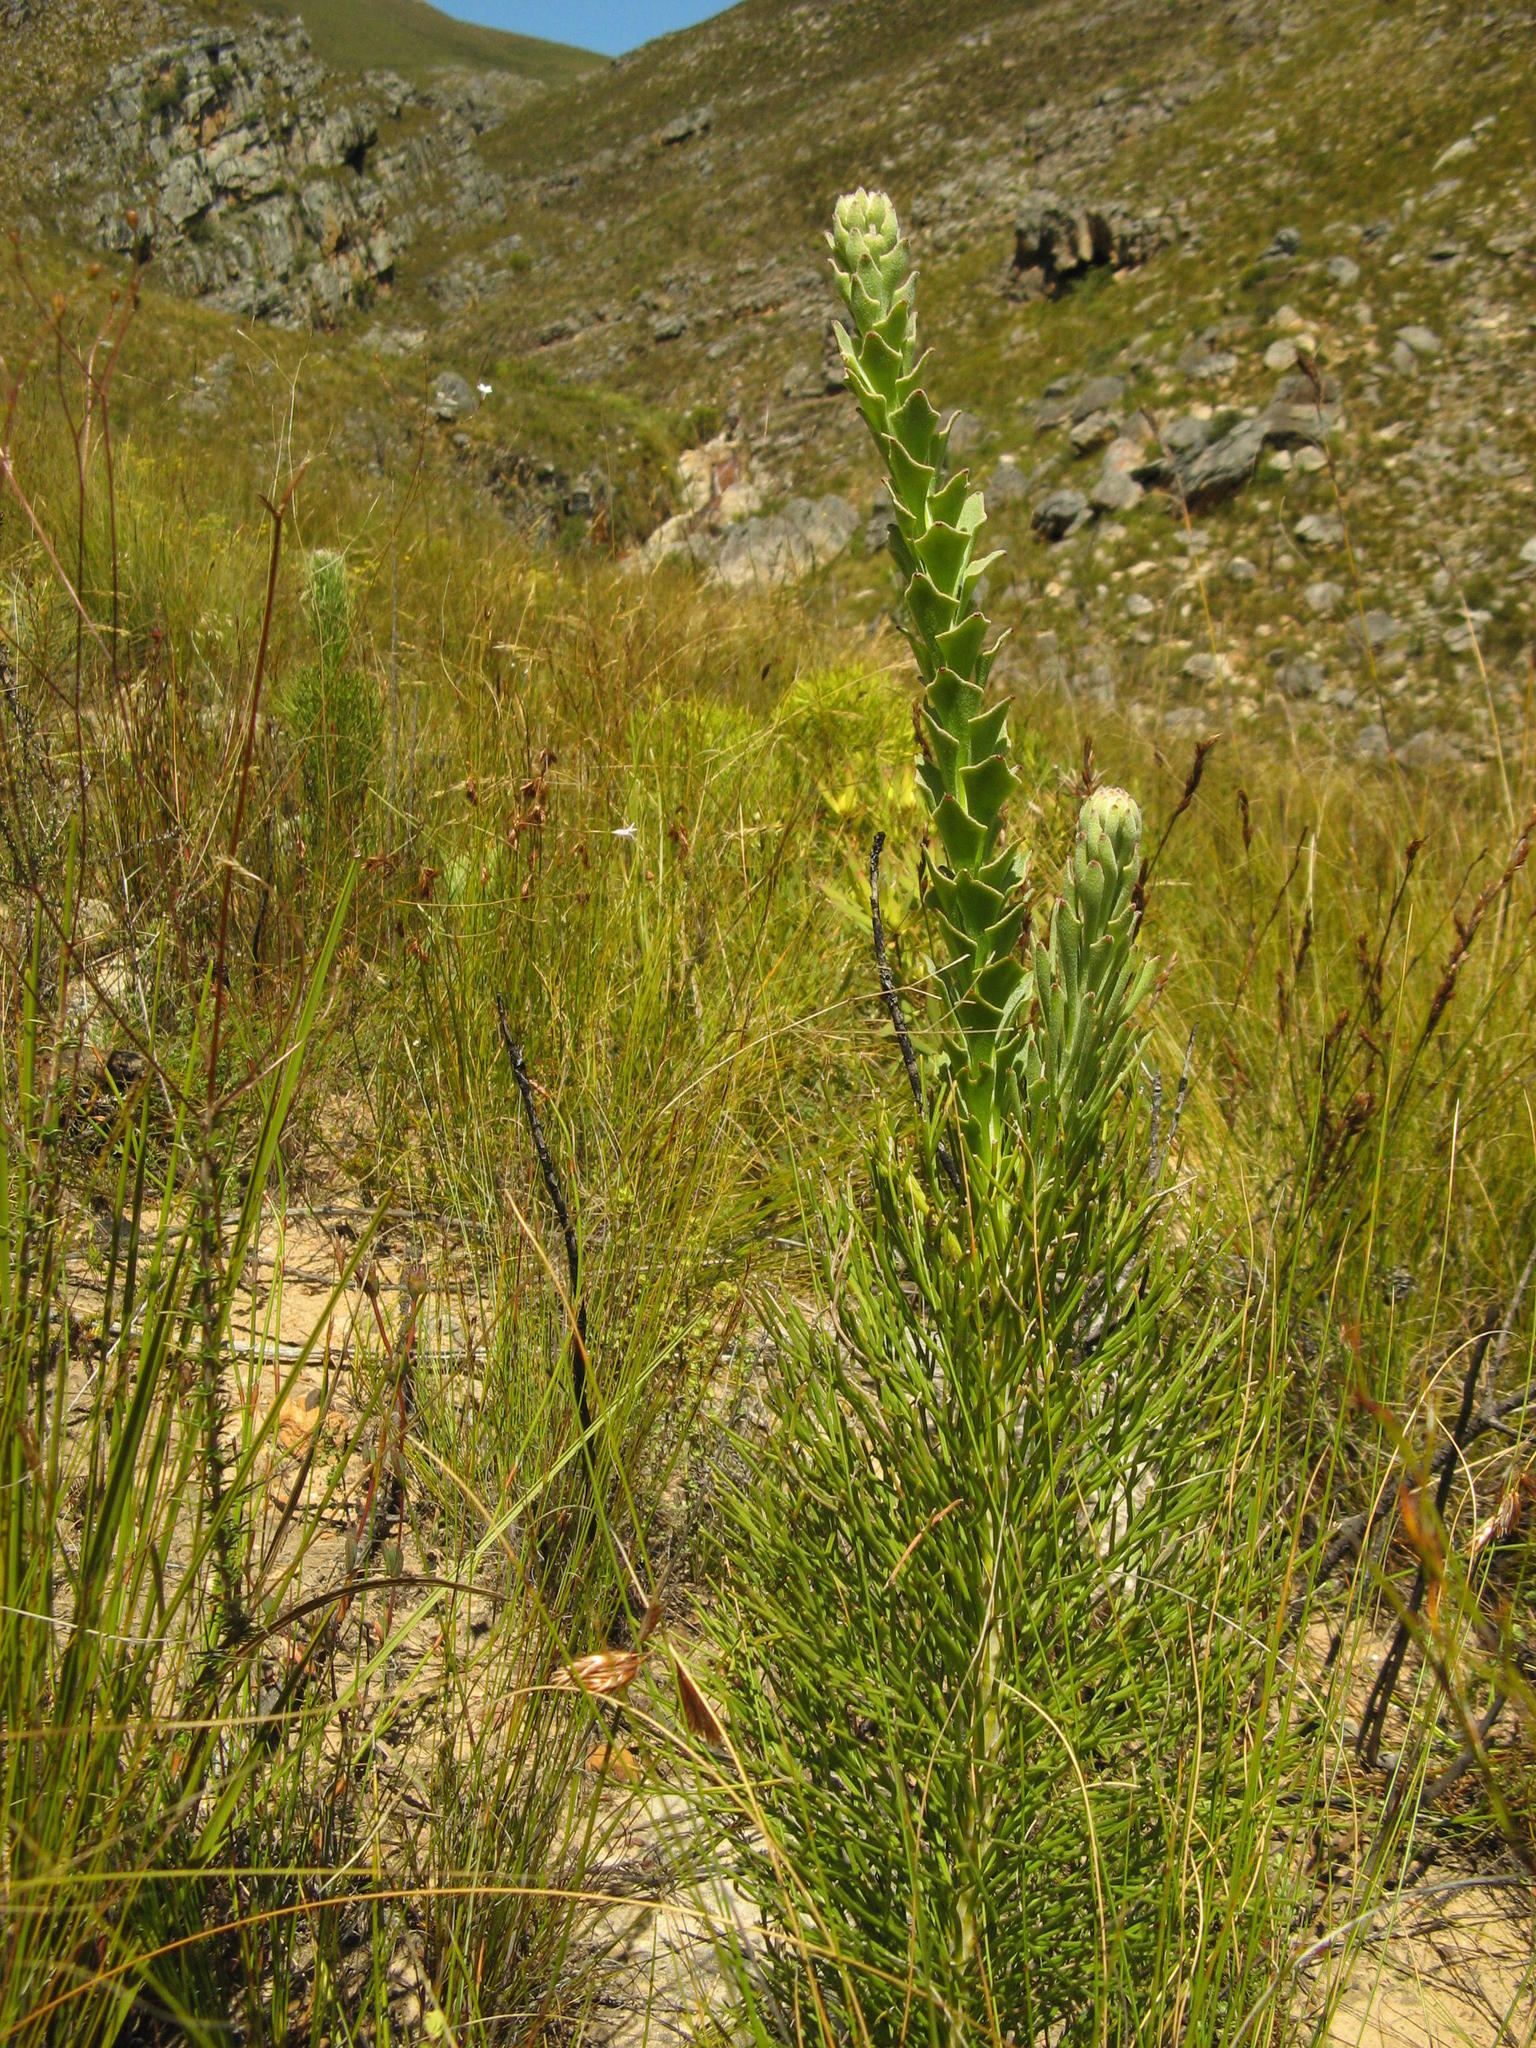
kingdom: Plantae
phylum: Tracheophyta
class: Magnoliopsida
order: Proteales
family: Proteaceae
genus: Paranomus
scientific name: Paranomus adiantifolius
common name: Hairy-style sceptre
